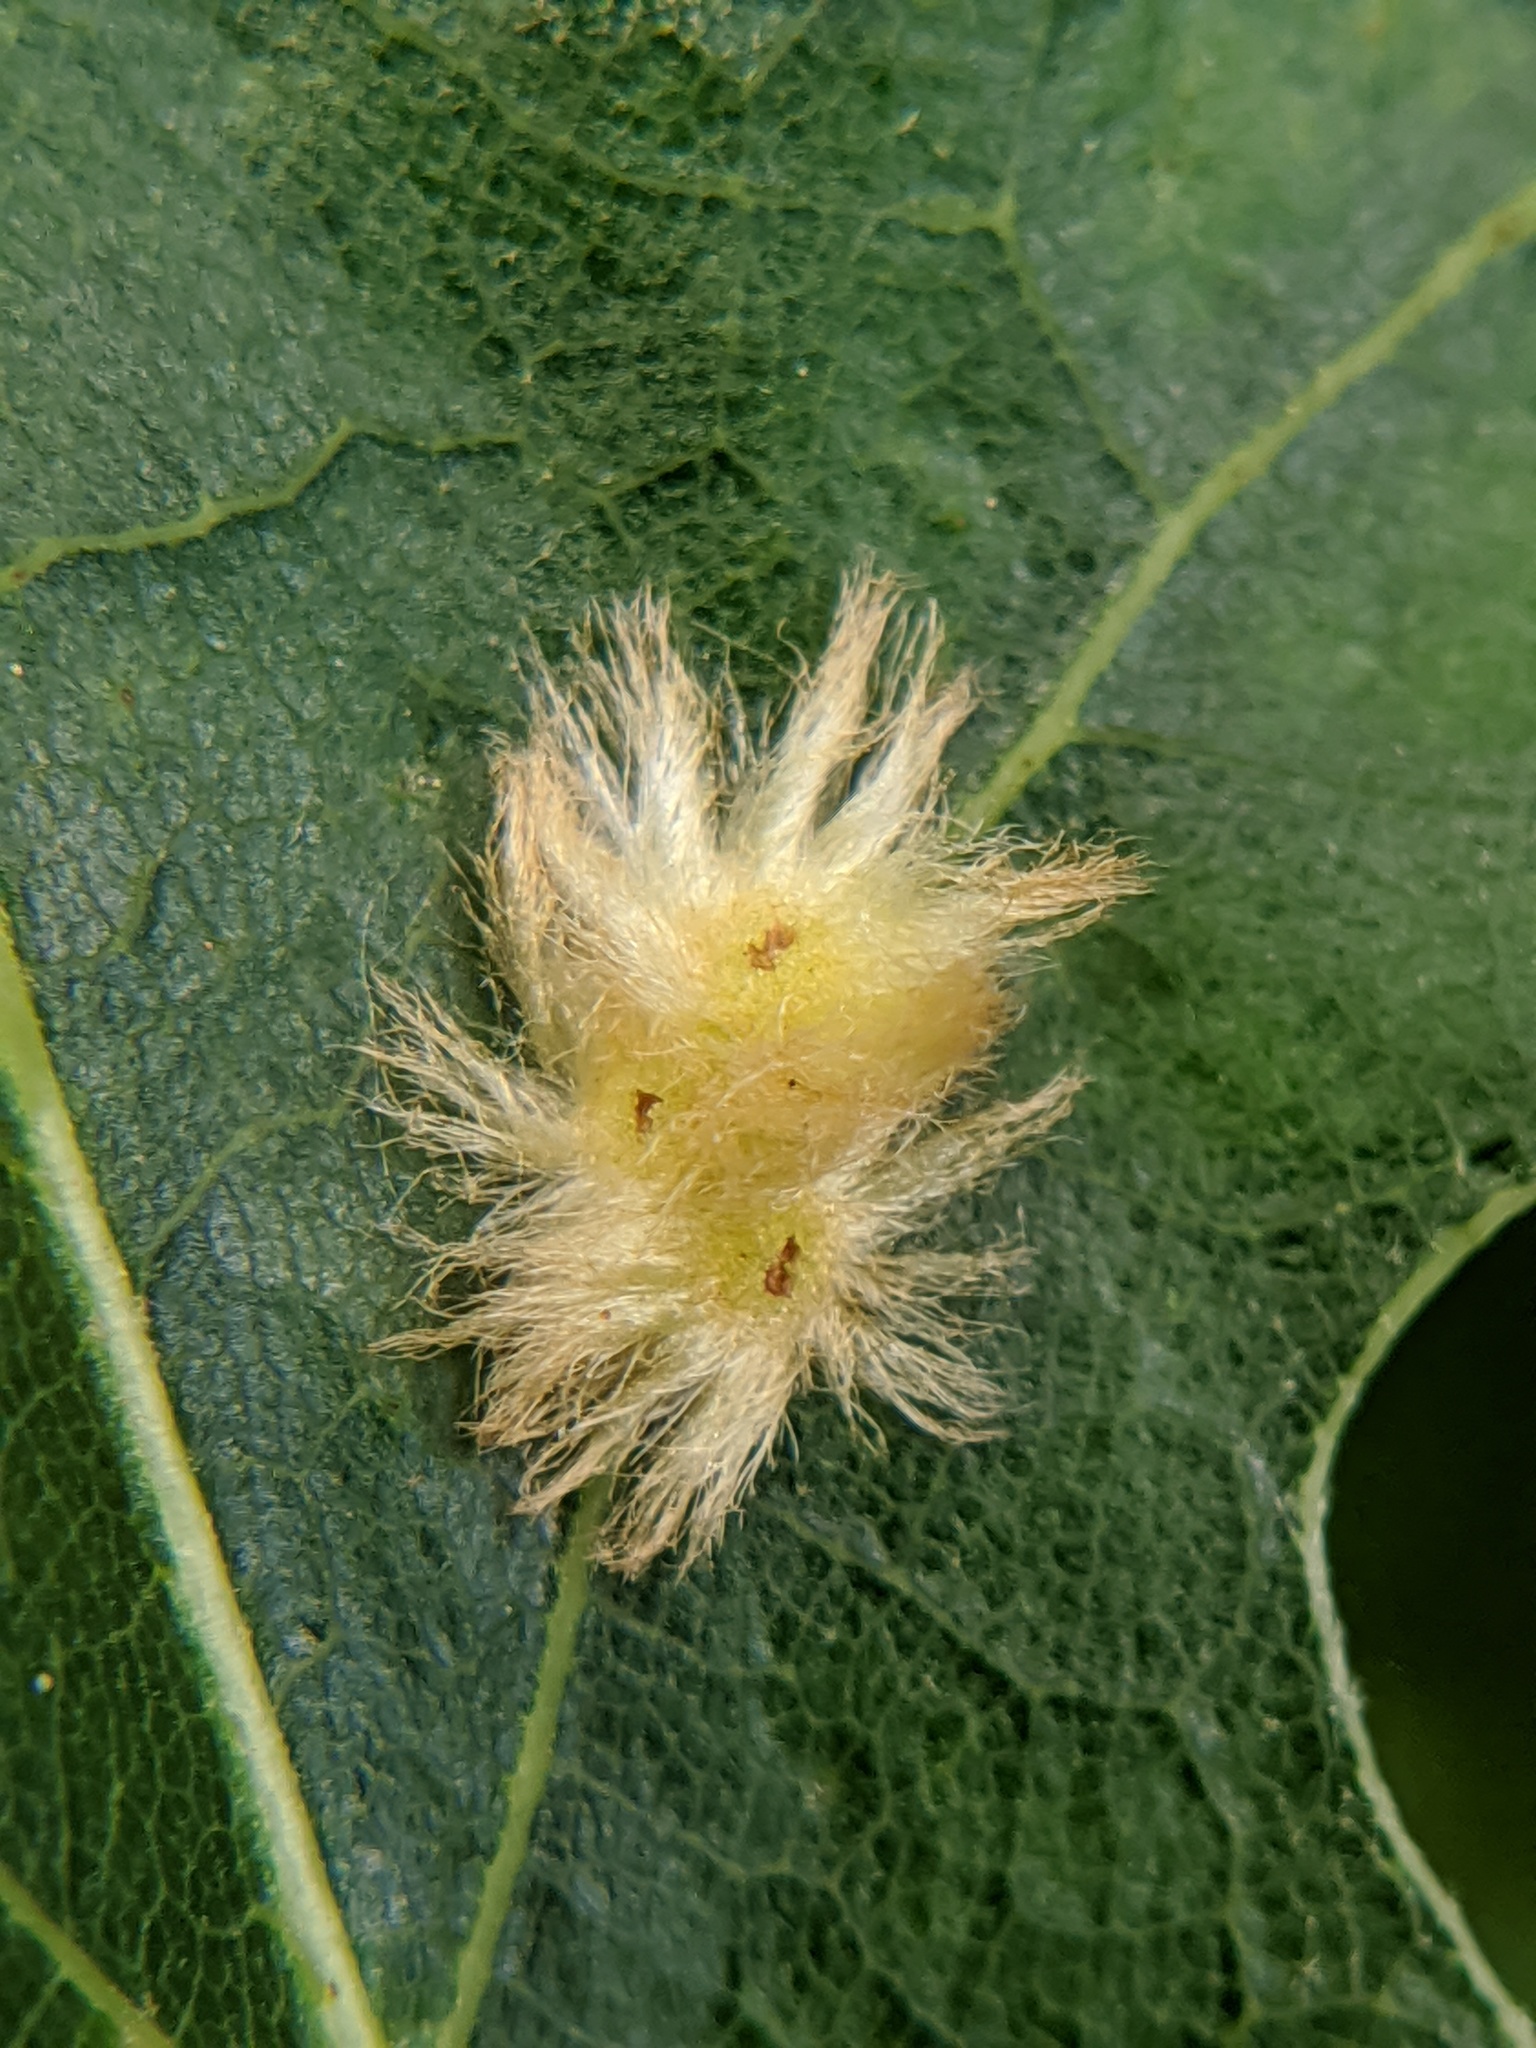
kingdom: Animalia
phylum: Arthropoda
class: Insecta
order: Hymenoptera
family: Cynipidae
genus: Callirhytis
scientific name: Callirhytis
